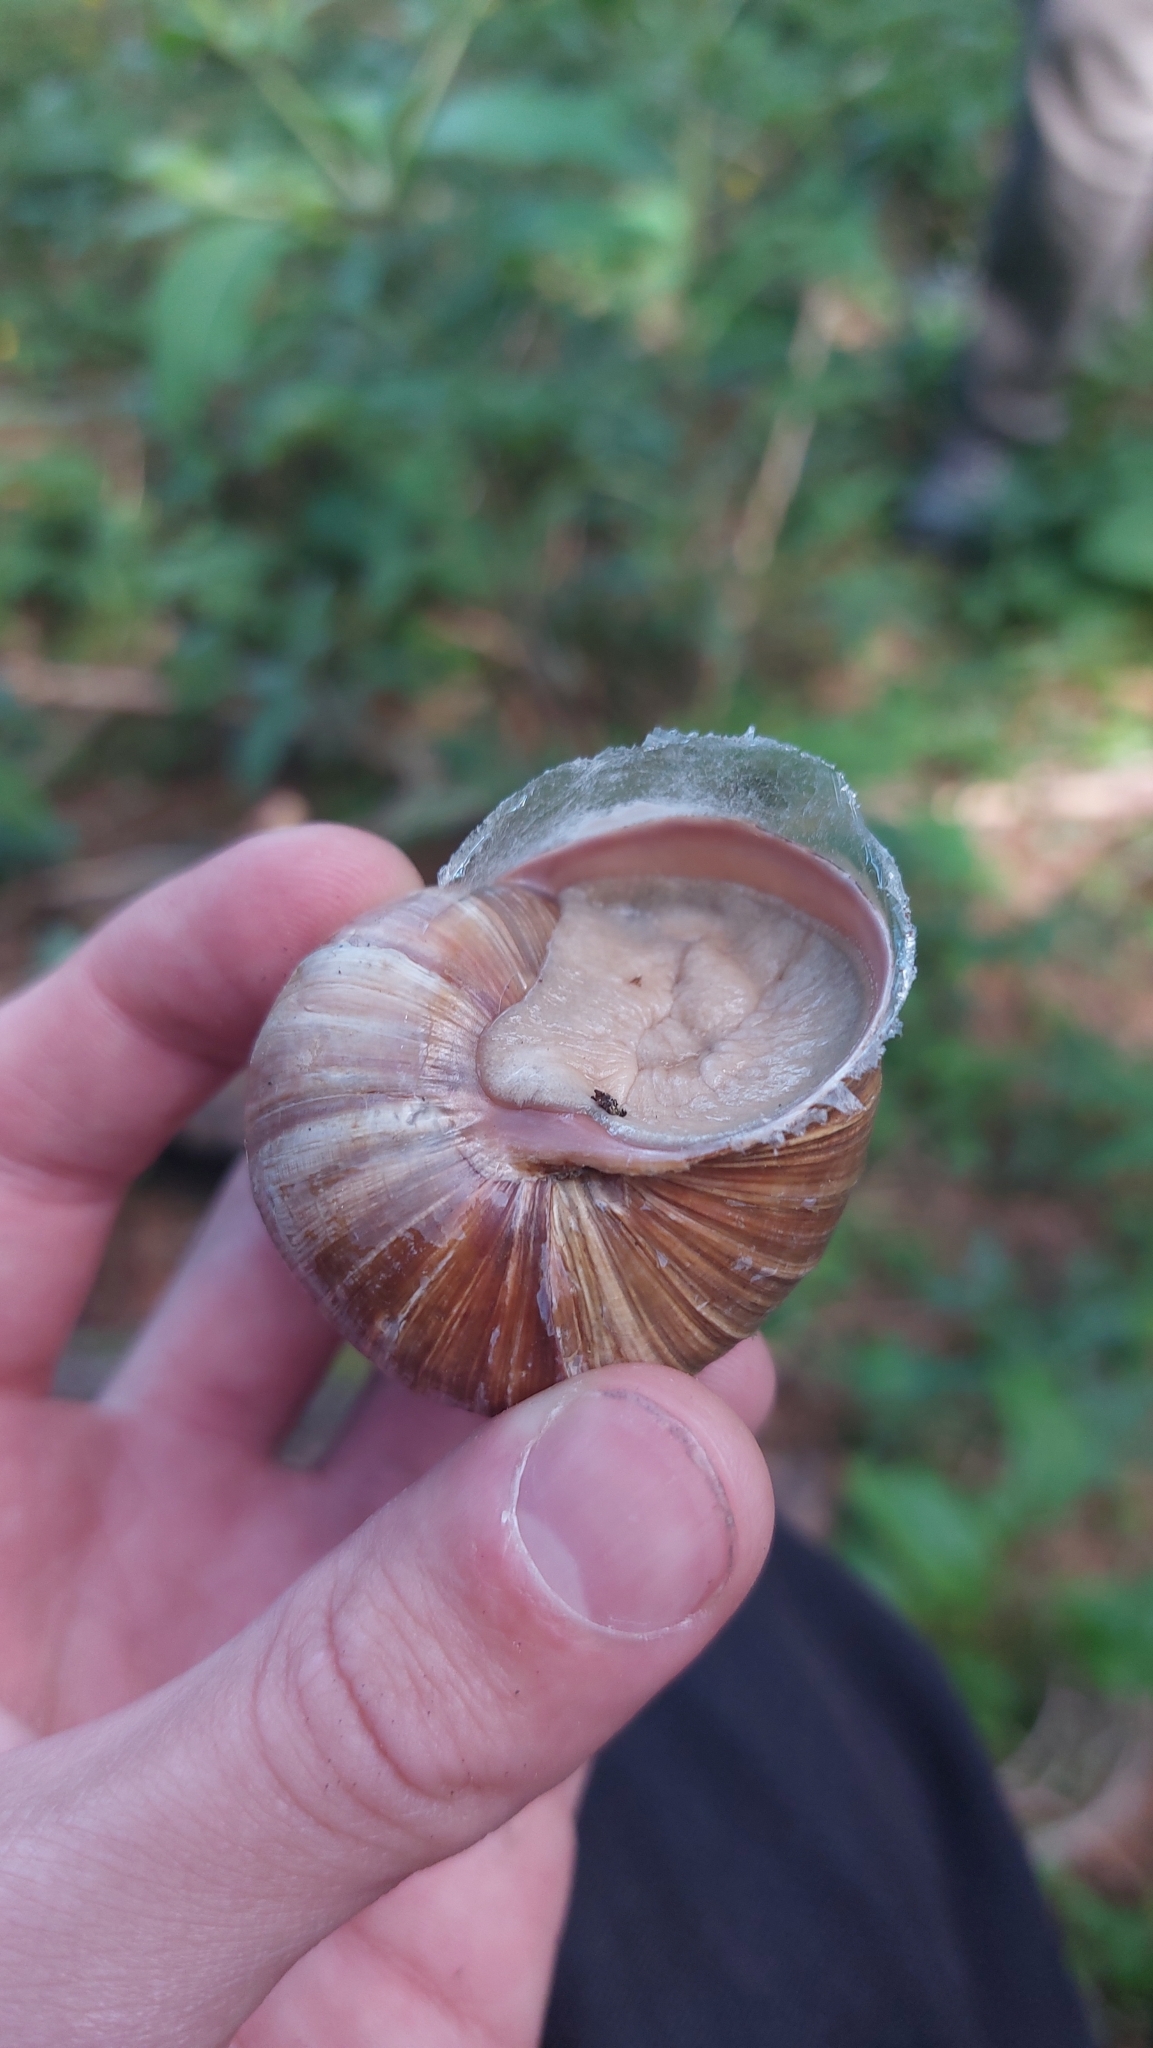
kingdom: Animalia
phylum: Mollusca
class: Gastropoda
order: Stylommatophora
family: Helicidae
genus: Helix
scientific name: Helix pomatia
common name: Roman snail
